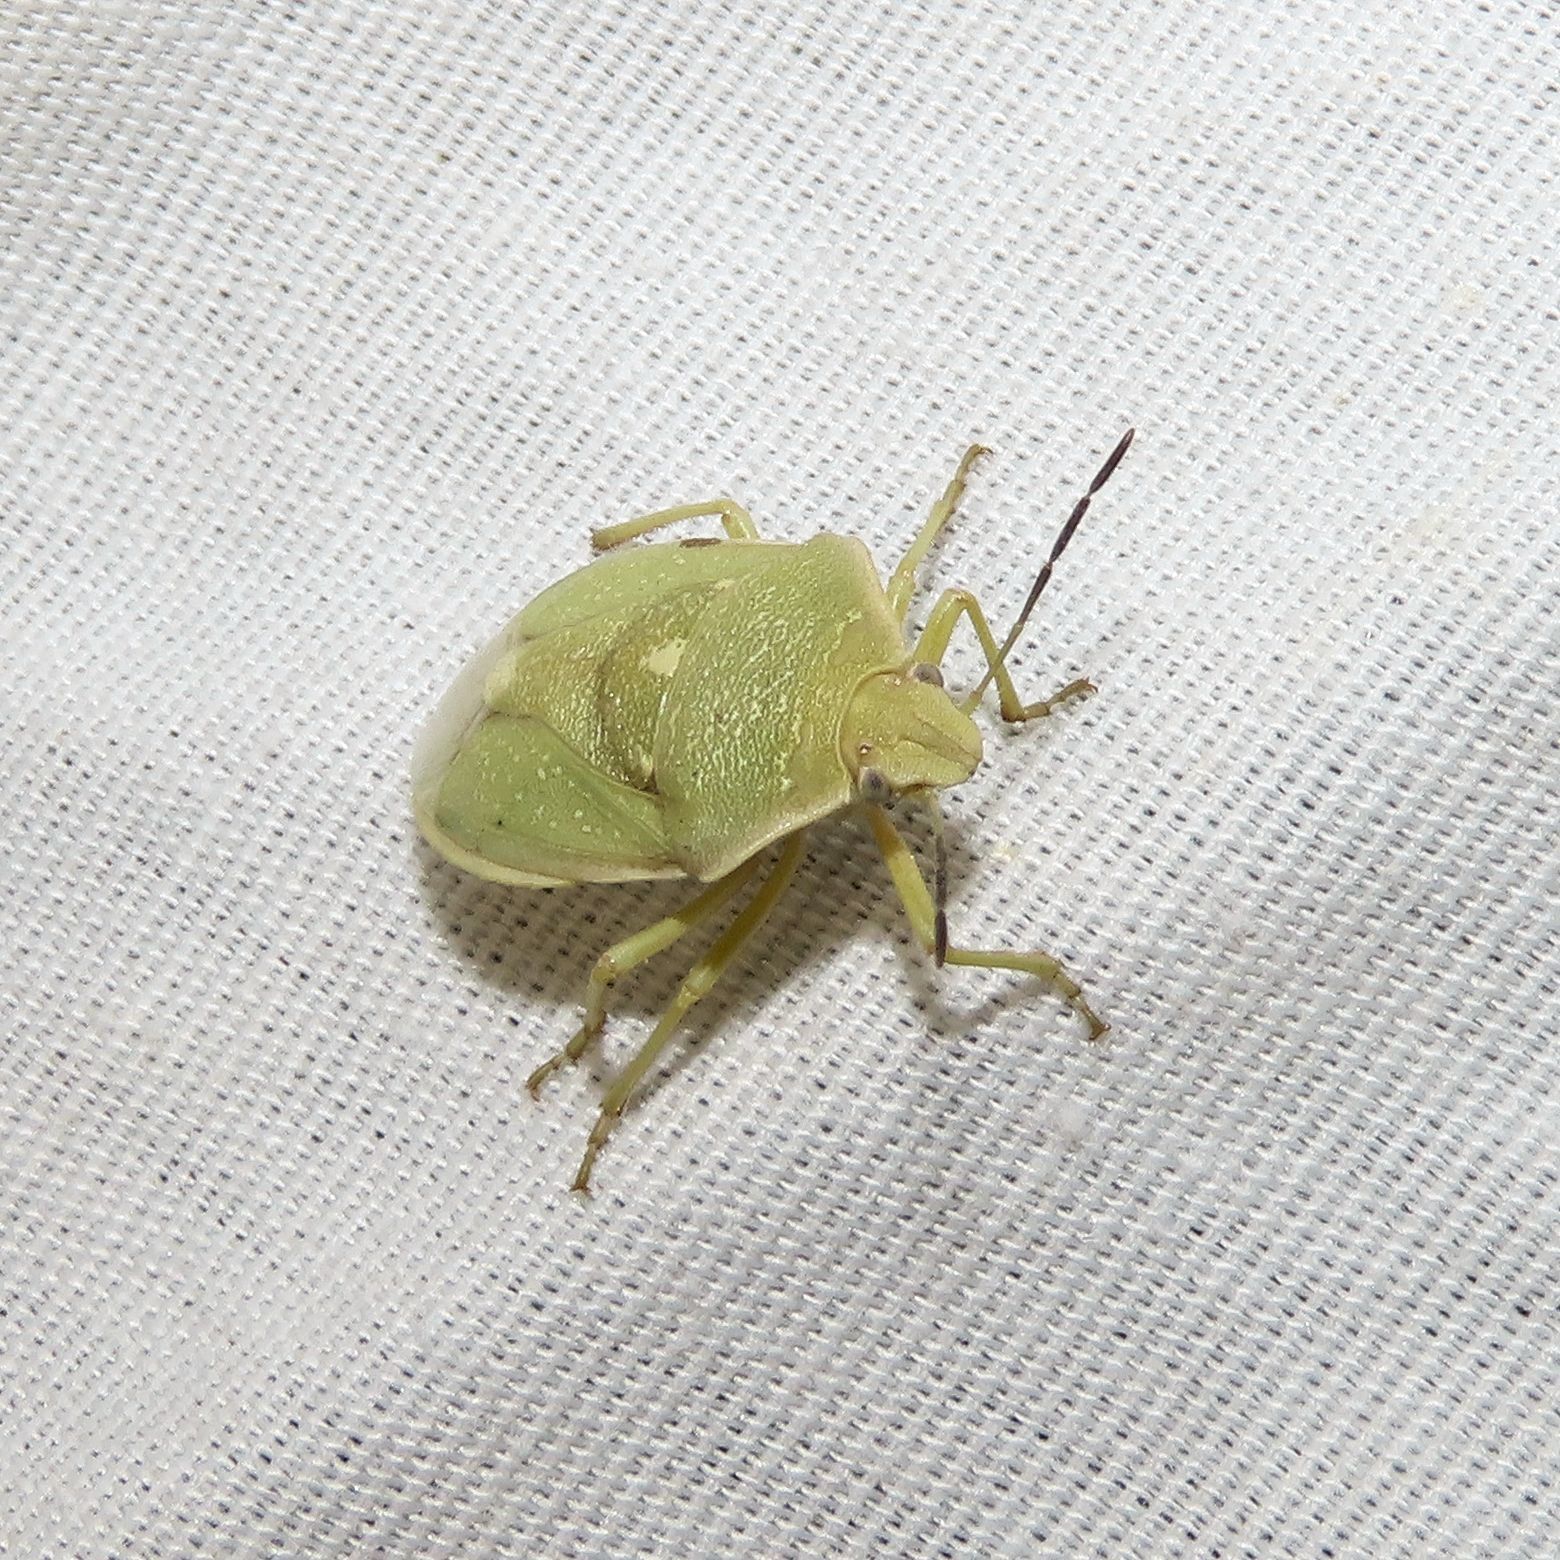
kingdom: Animalia
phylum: Arthropoda
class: Insecta
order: Hemiptera
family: Pentatomidae
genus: Chlorochroa
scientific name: Chlorochroa uhleri
